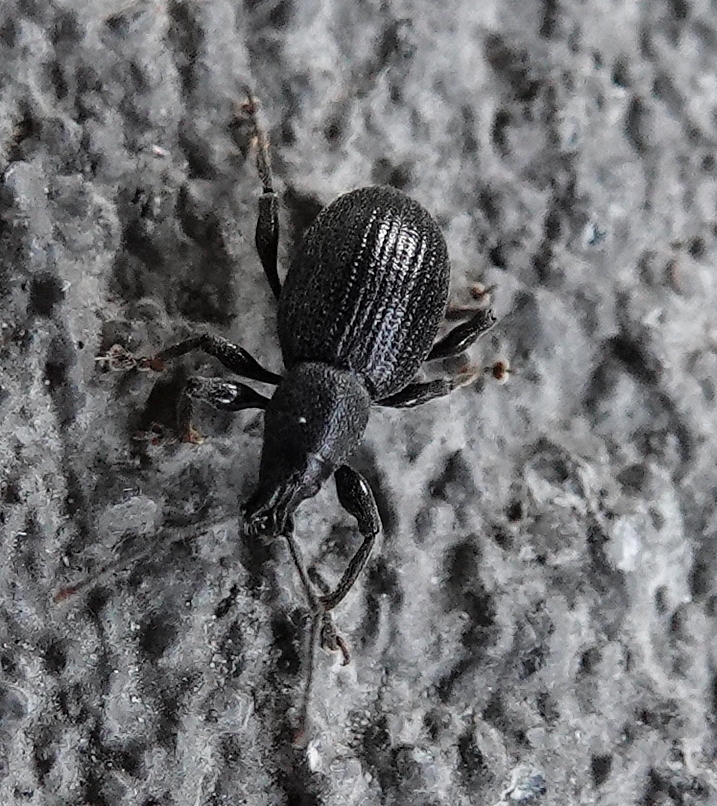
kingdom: Animalia
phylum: Arthropoda
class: Insecta
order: Coleoptera
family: Curculionidae
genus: Otiorhynchus
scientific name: Otiorhynchus meridionalis
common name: Weevil
